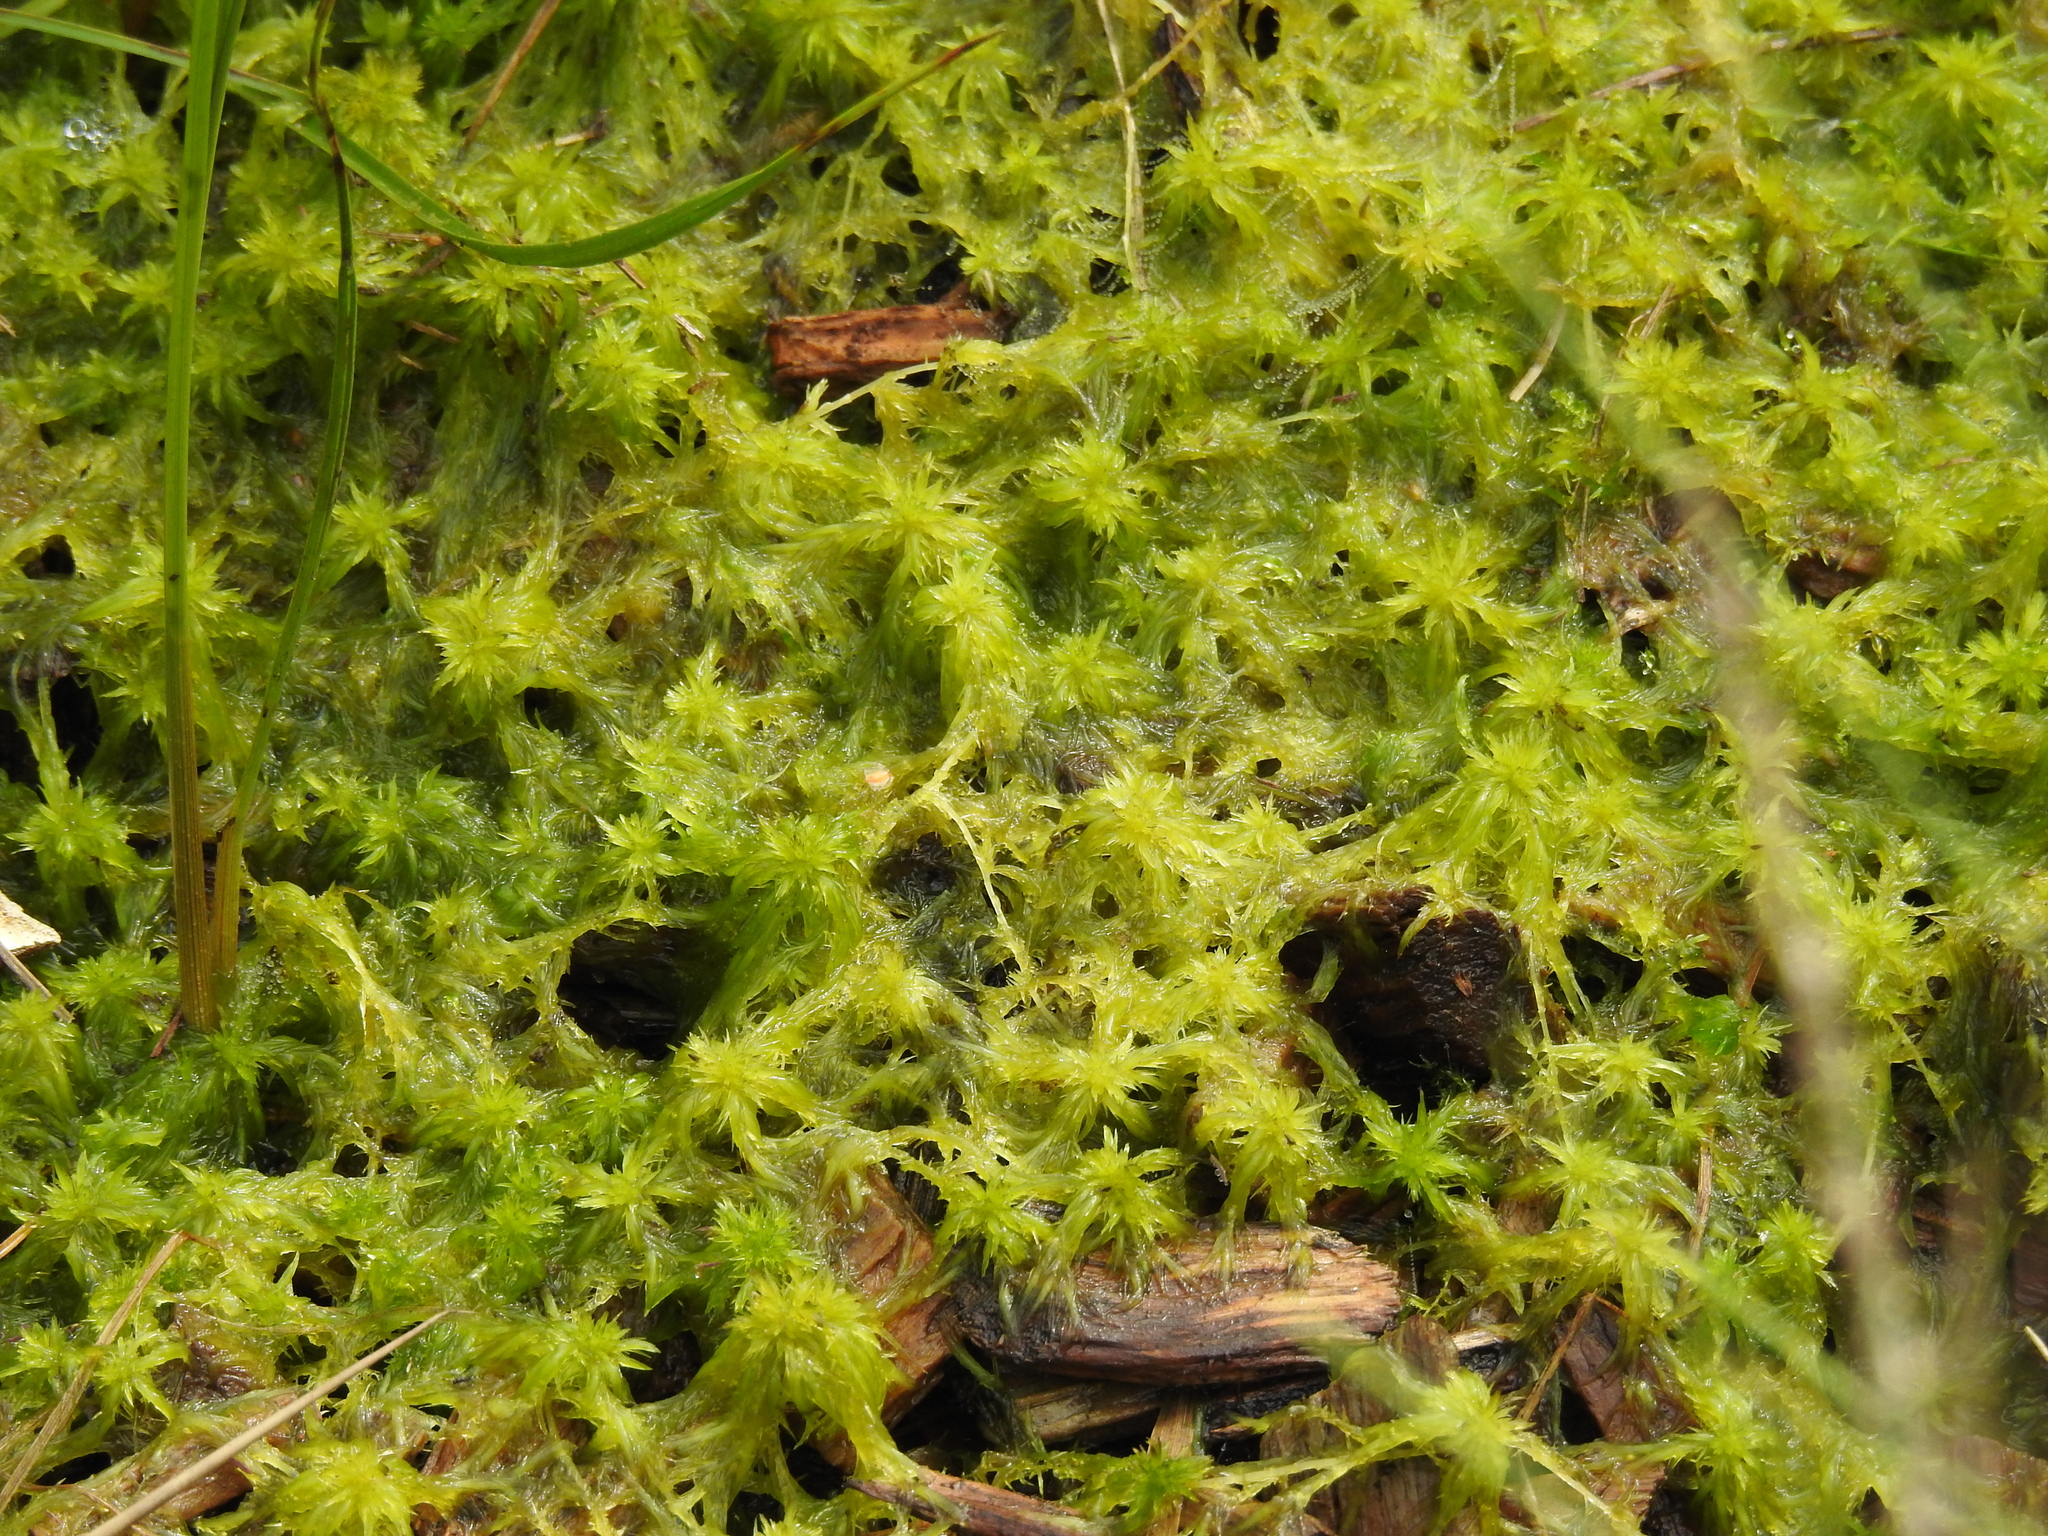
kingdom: Plantae
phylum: Bryophyta
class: Sphagnopsida
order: Sphagnales
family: Sphagnaceae
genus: Sphagnum
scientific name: Sphagnum cuspidatum
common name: Feathery peat moss
